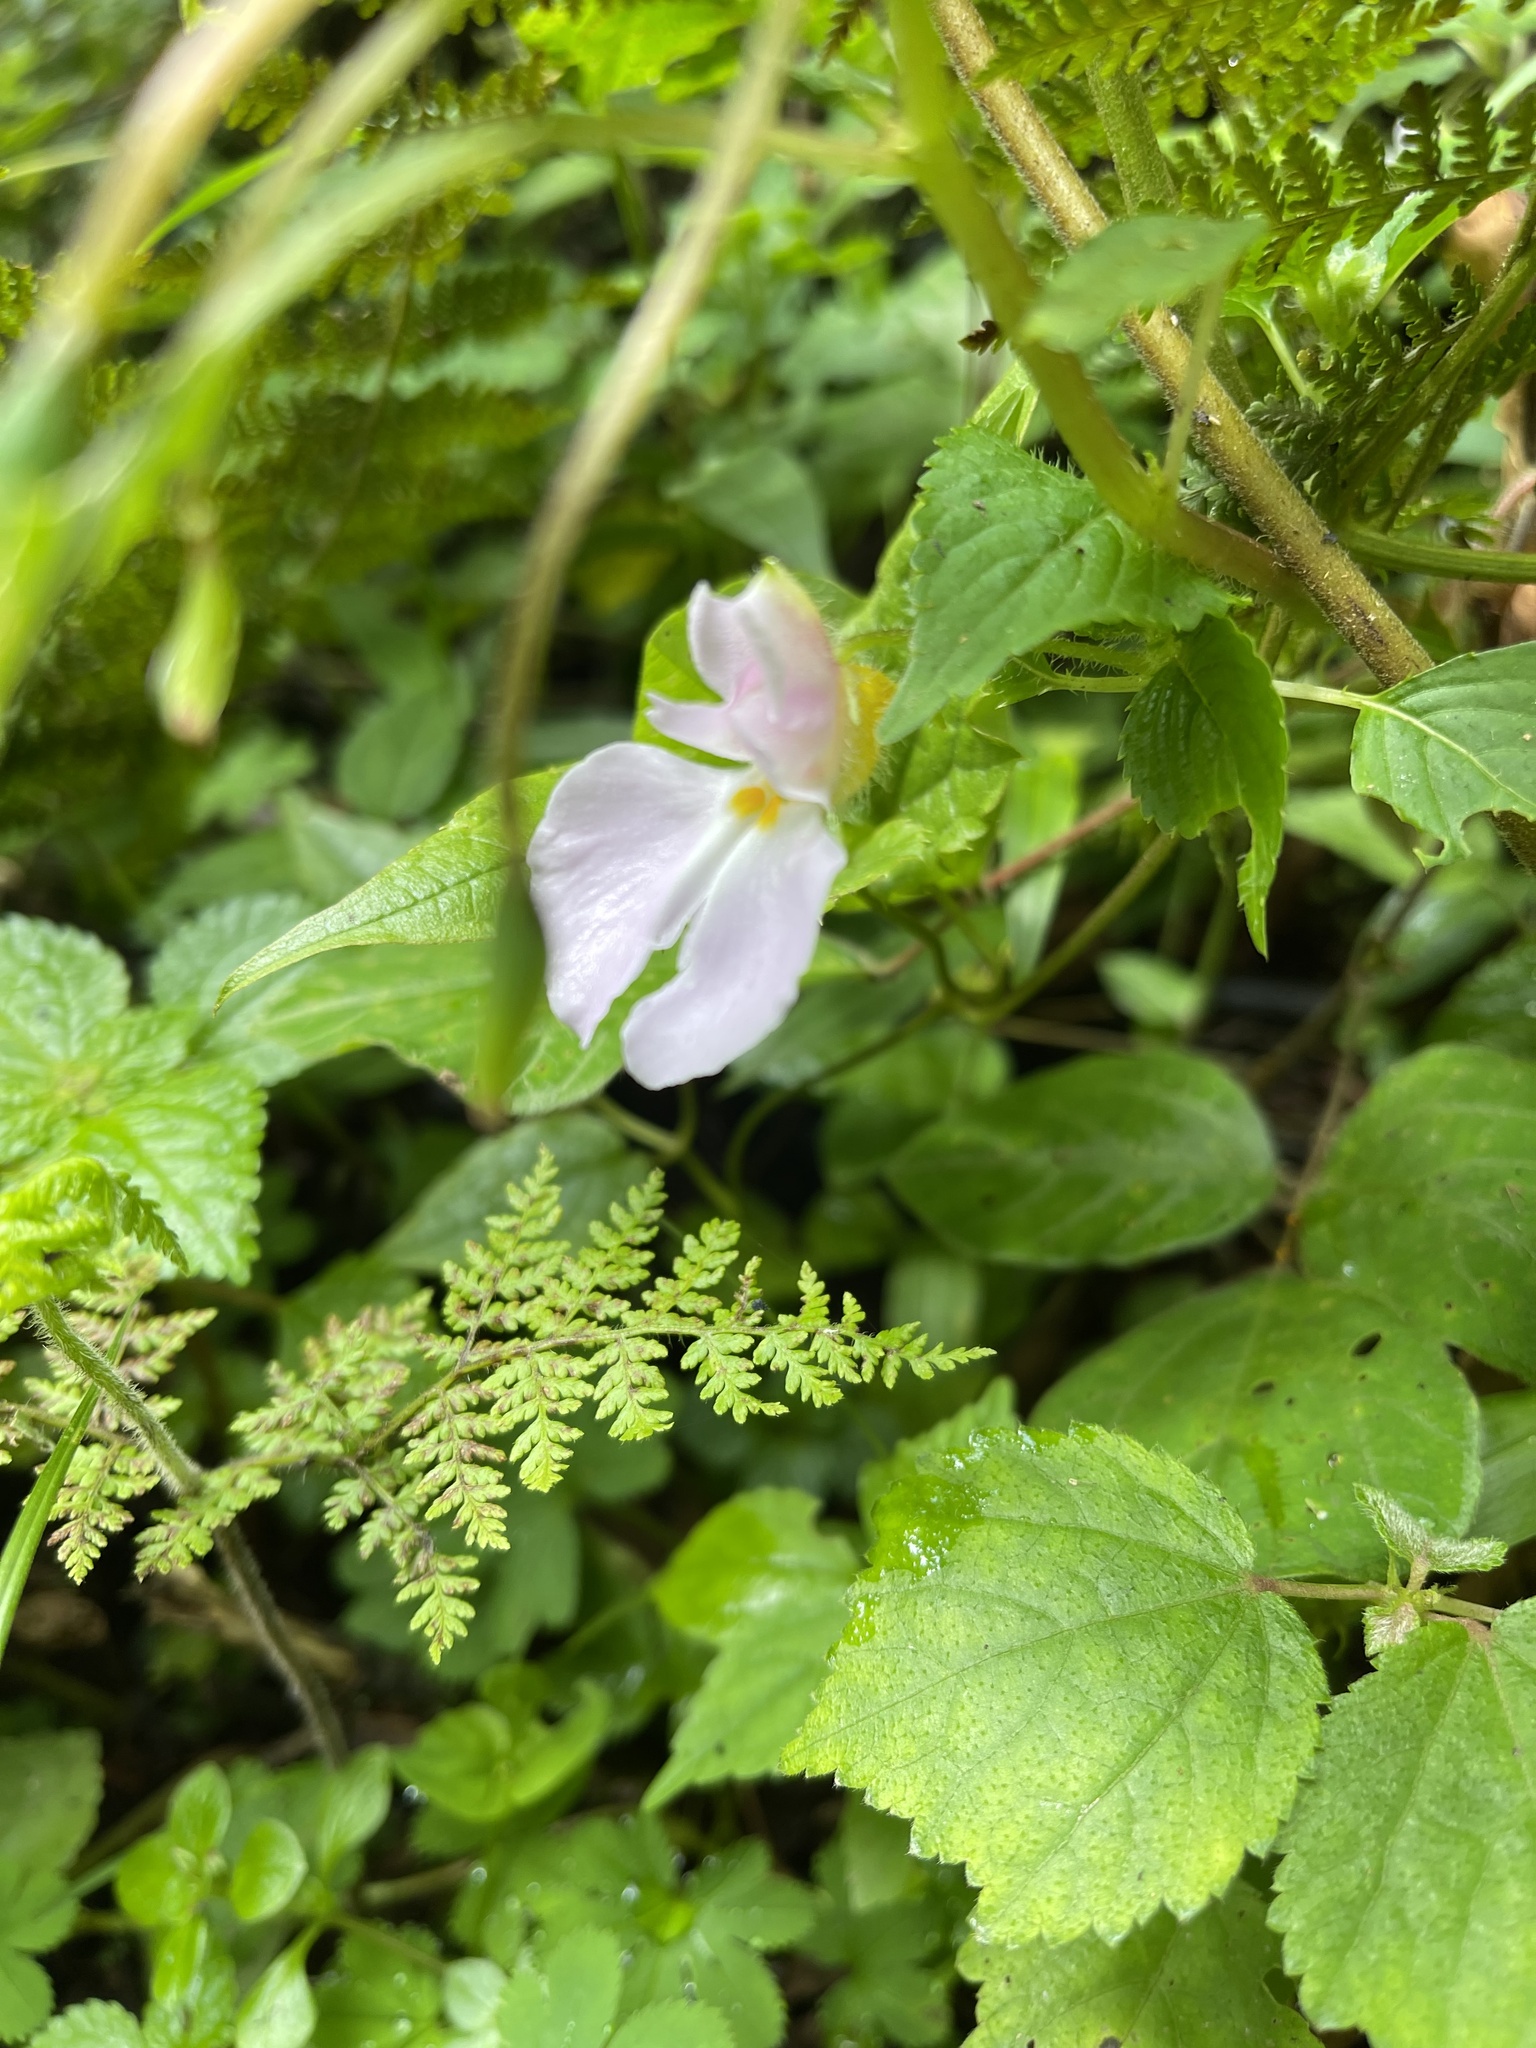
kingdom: Plantae
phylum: Tracheophyta
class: Magnoliopsida
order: Ericales
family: Balsaminaceae
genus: Impatiens
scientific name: Impatiens burtonii
